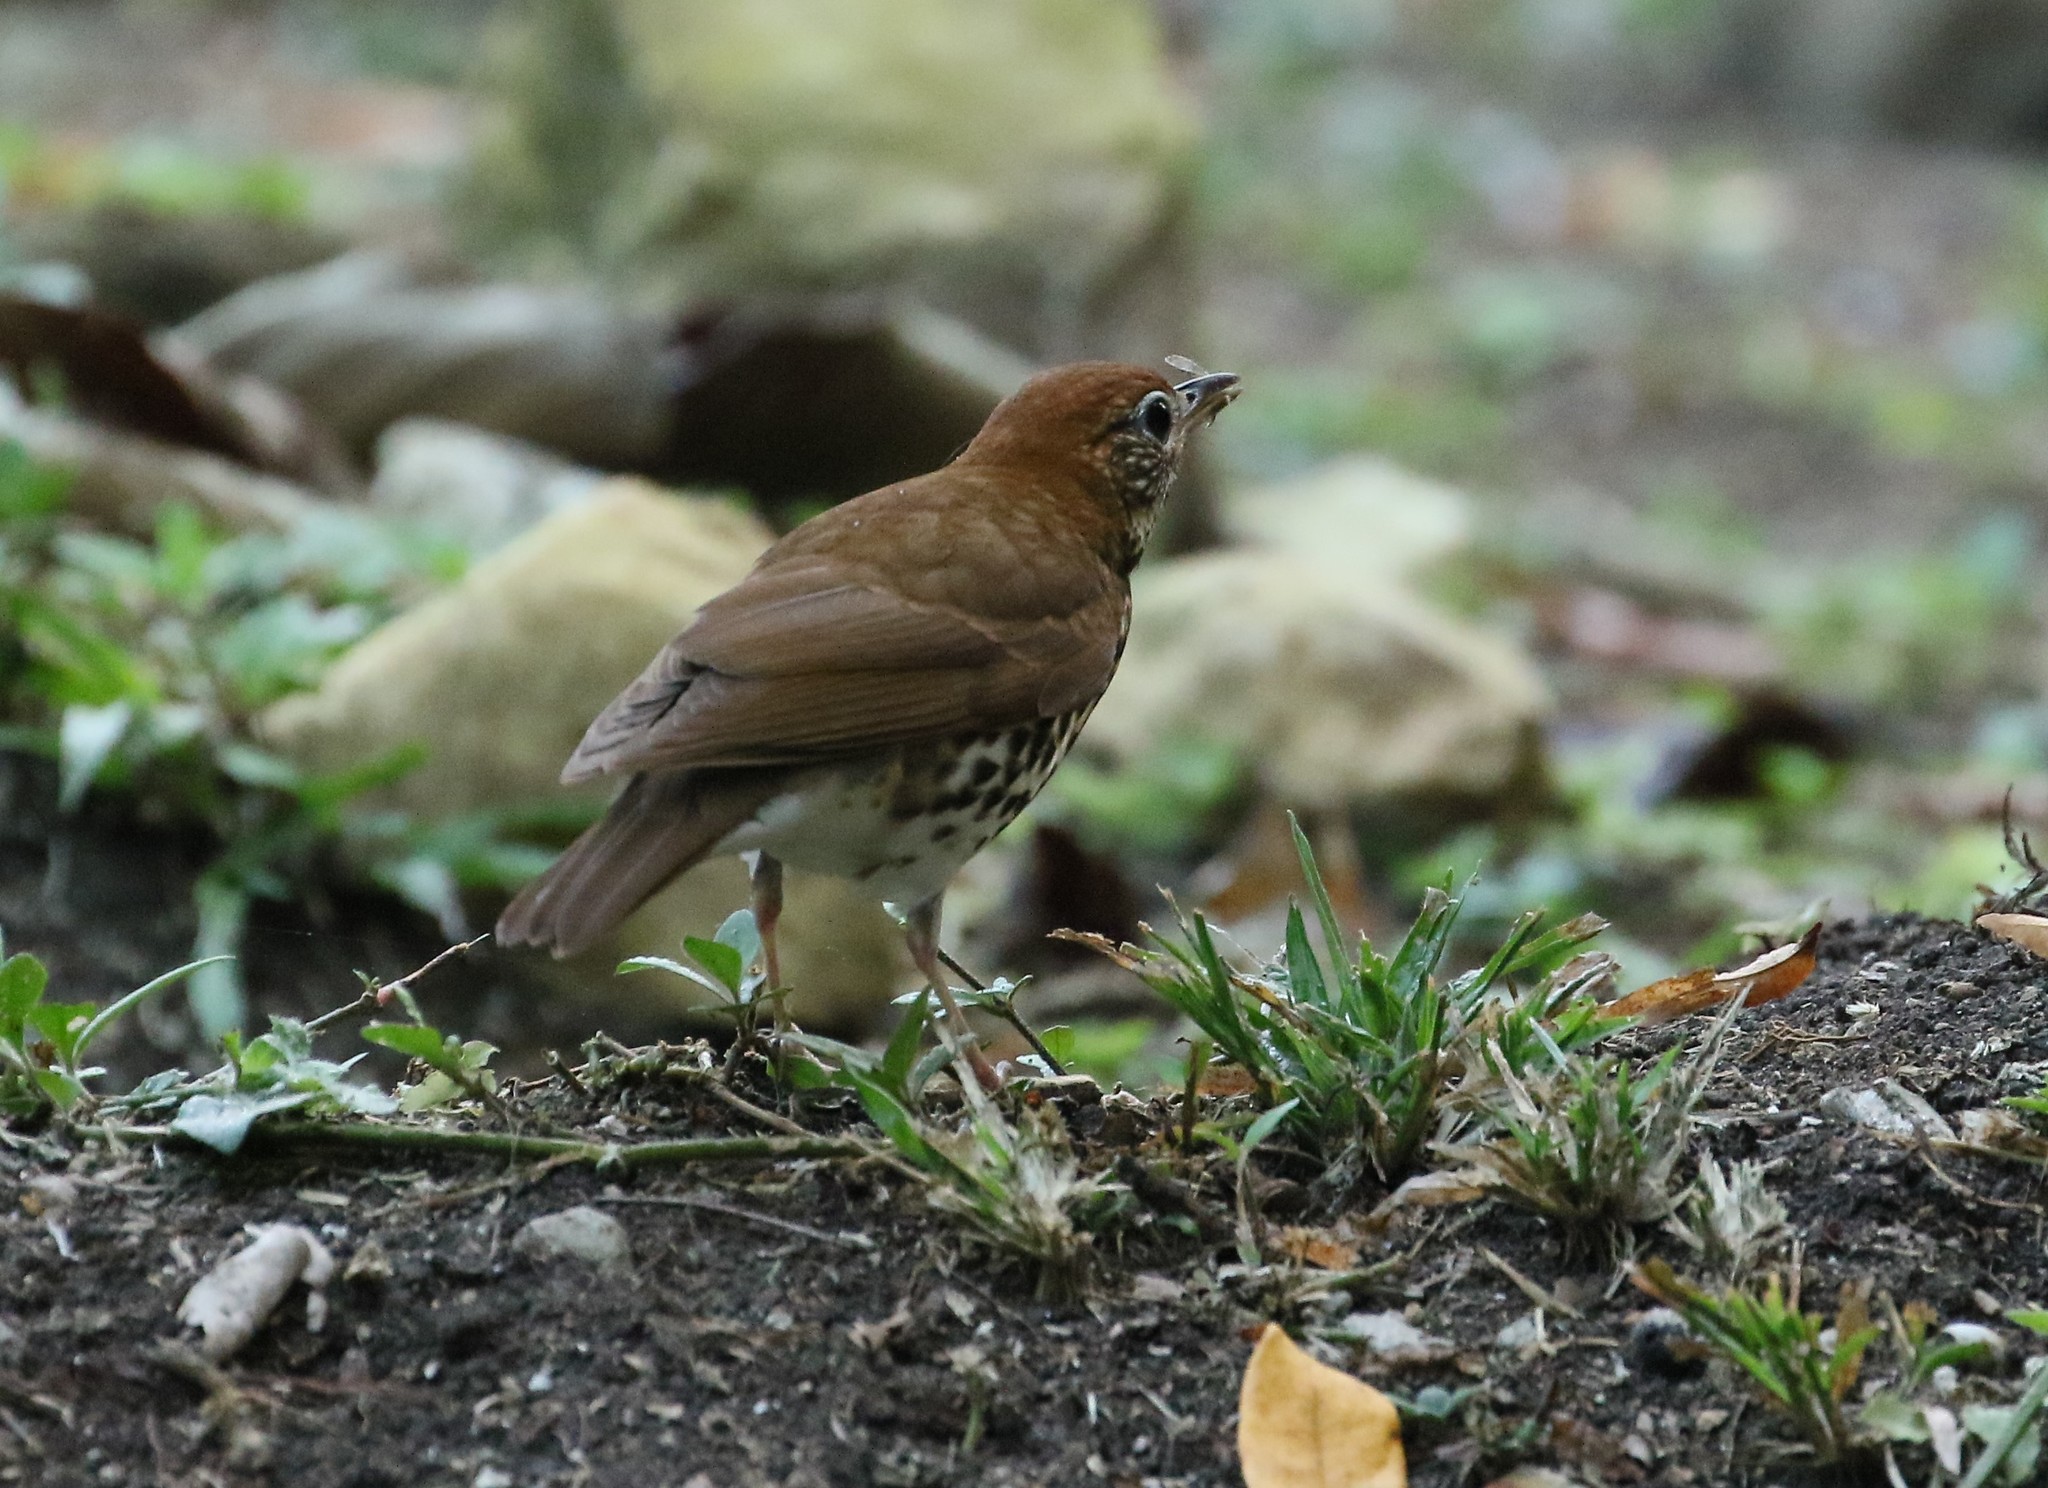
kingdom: Animalia
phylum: Chordata
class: Aves
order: Passeriformes
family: Turdidae
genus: Hylocichla
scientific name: Hylocichla mustelina
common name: Wood thrush
